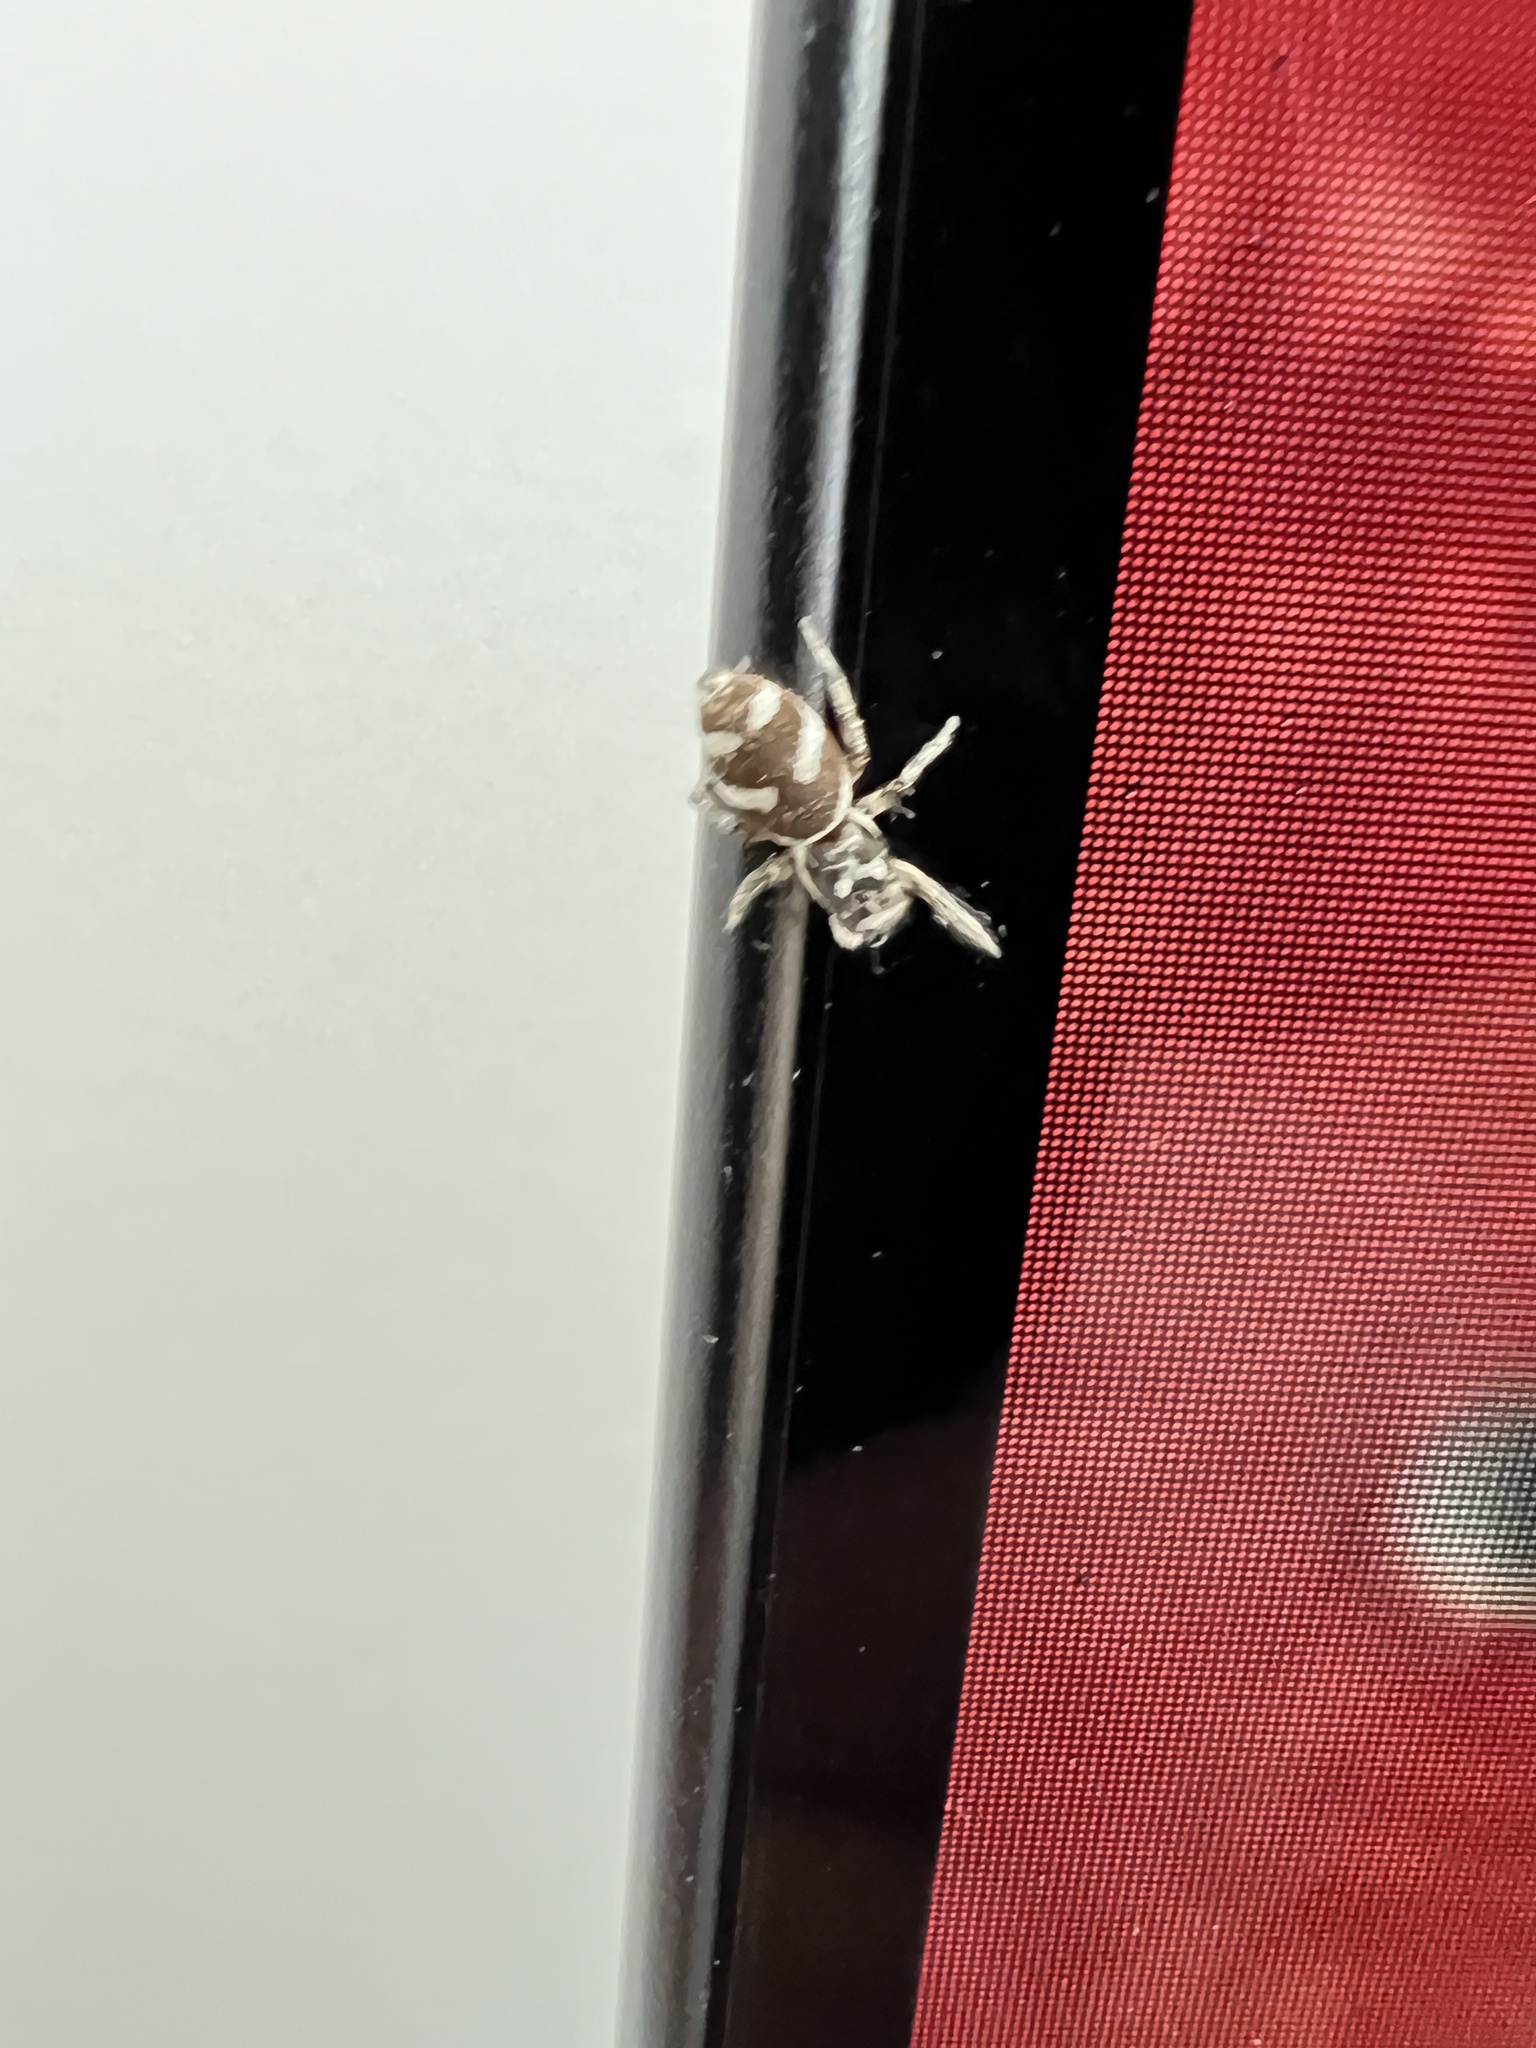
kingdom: Animalia
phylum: Arthropoda
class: Arachnida
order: Araneae
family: Salticidae
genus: Salticus
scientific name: Salticus scenicus
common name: Zebra jumper
